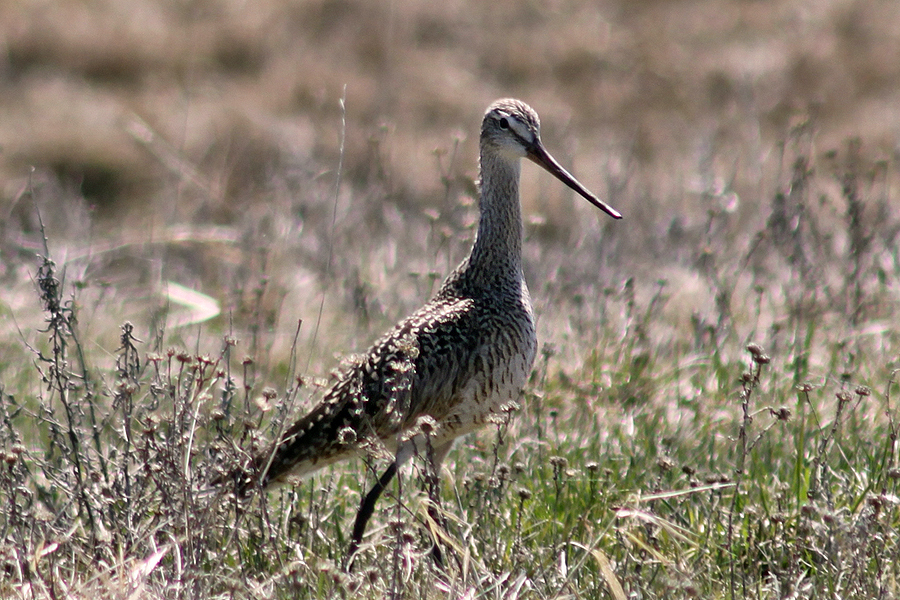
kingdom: Animalia
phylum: Chordata
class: Aves
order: Charadriiformes
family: Scolopacidae
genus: Limosa
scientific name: Limosa fedoa
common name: Marbled godwit
